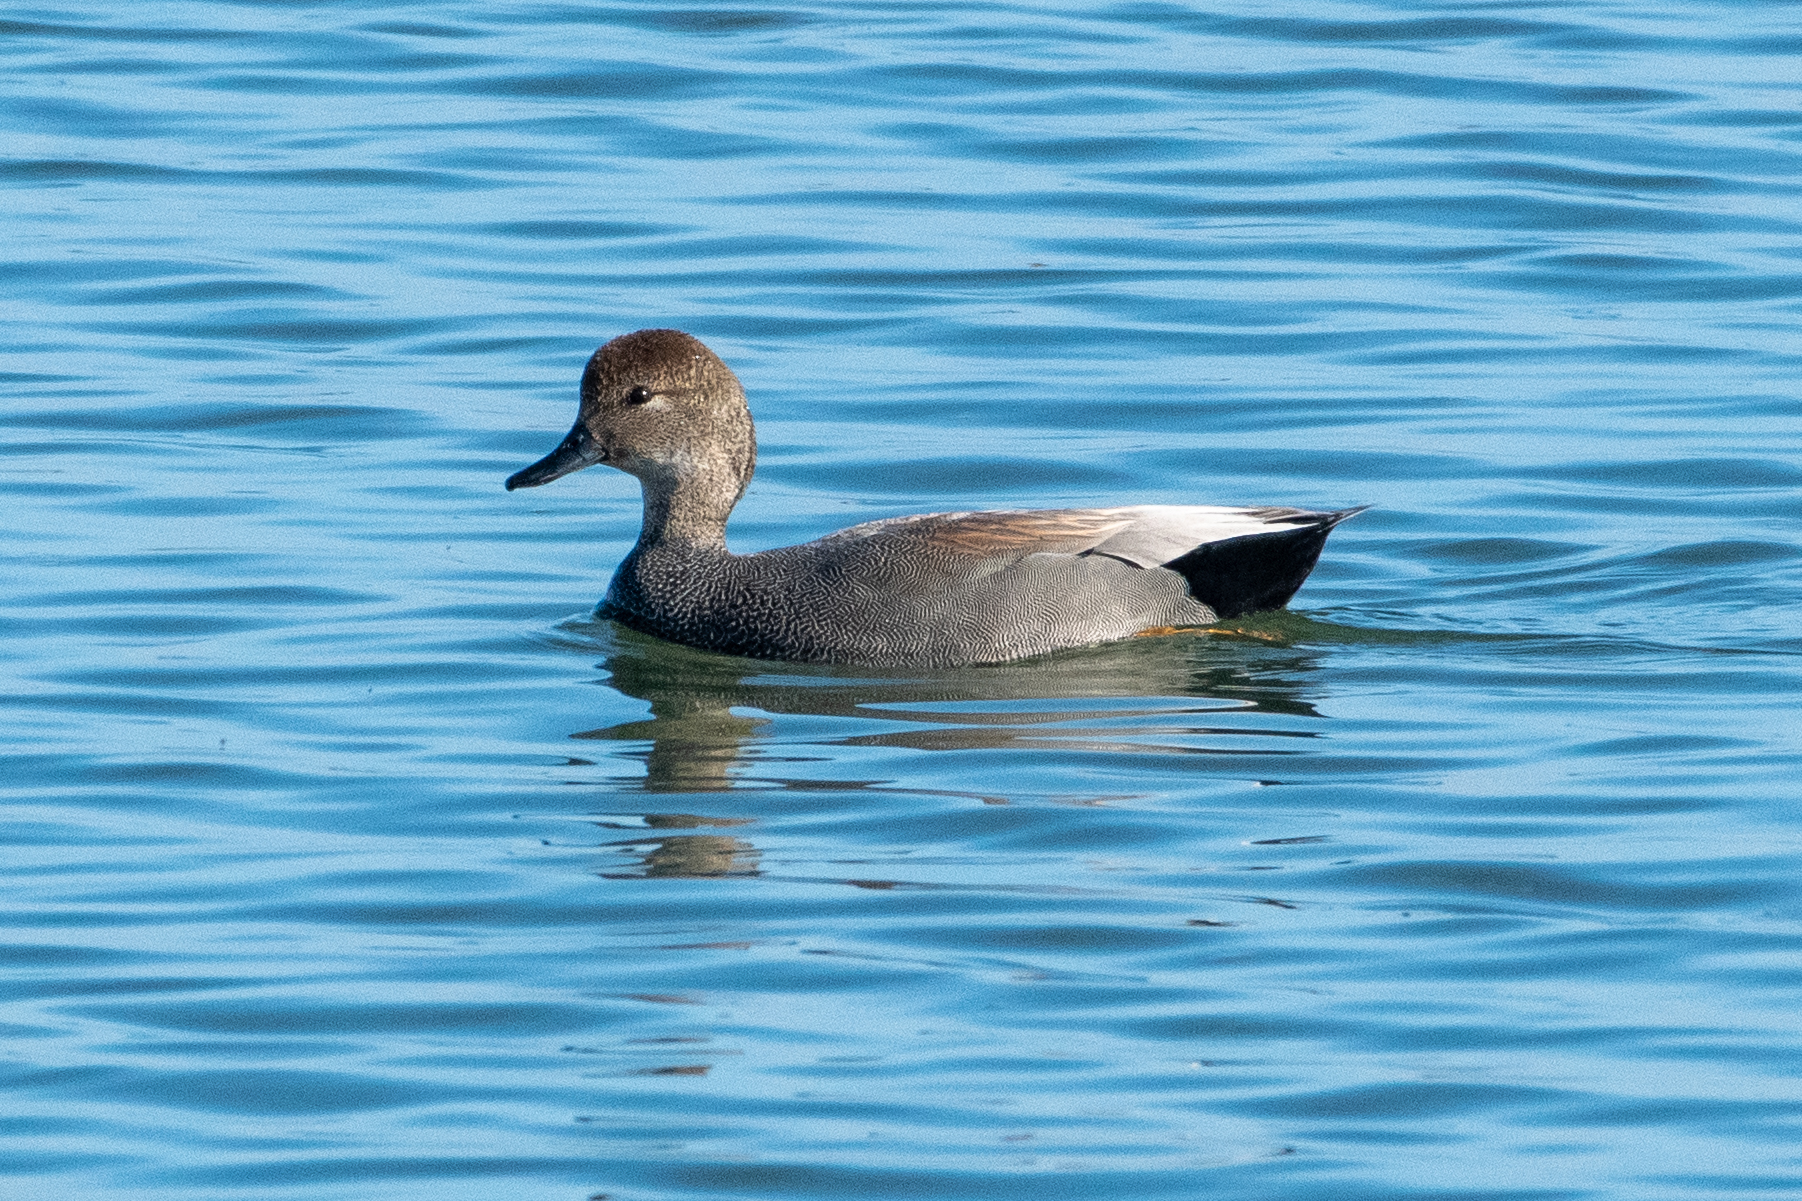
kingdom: Animalia
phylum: Chordata
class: Aves
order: Anseriformes
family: Anatidae
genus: Mareca
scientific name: Mareca strepera
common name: Gadwall
